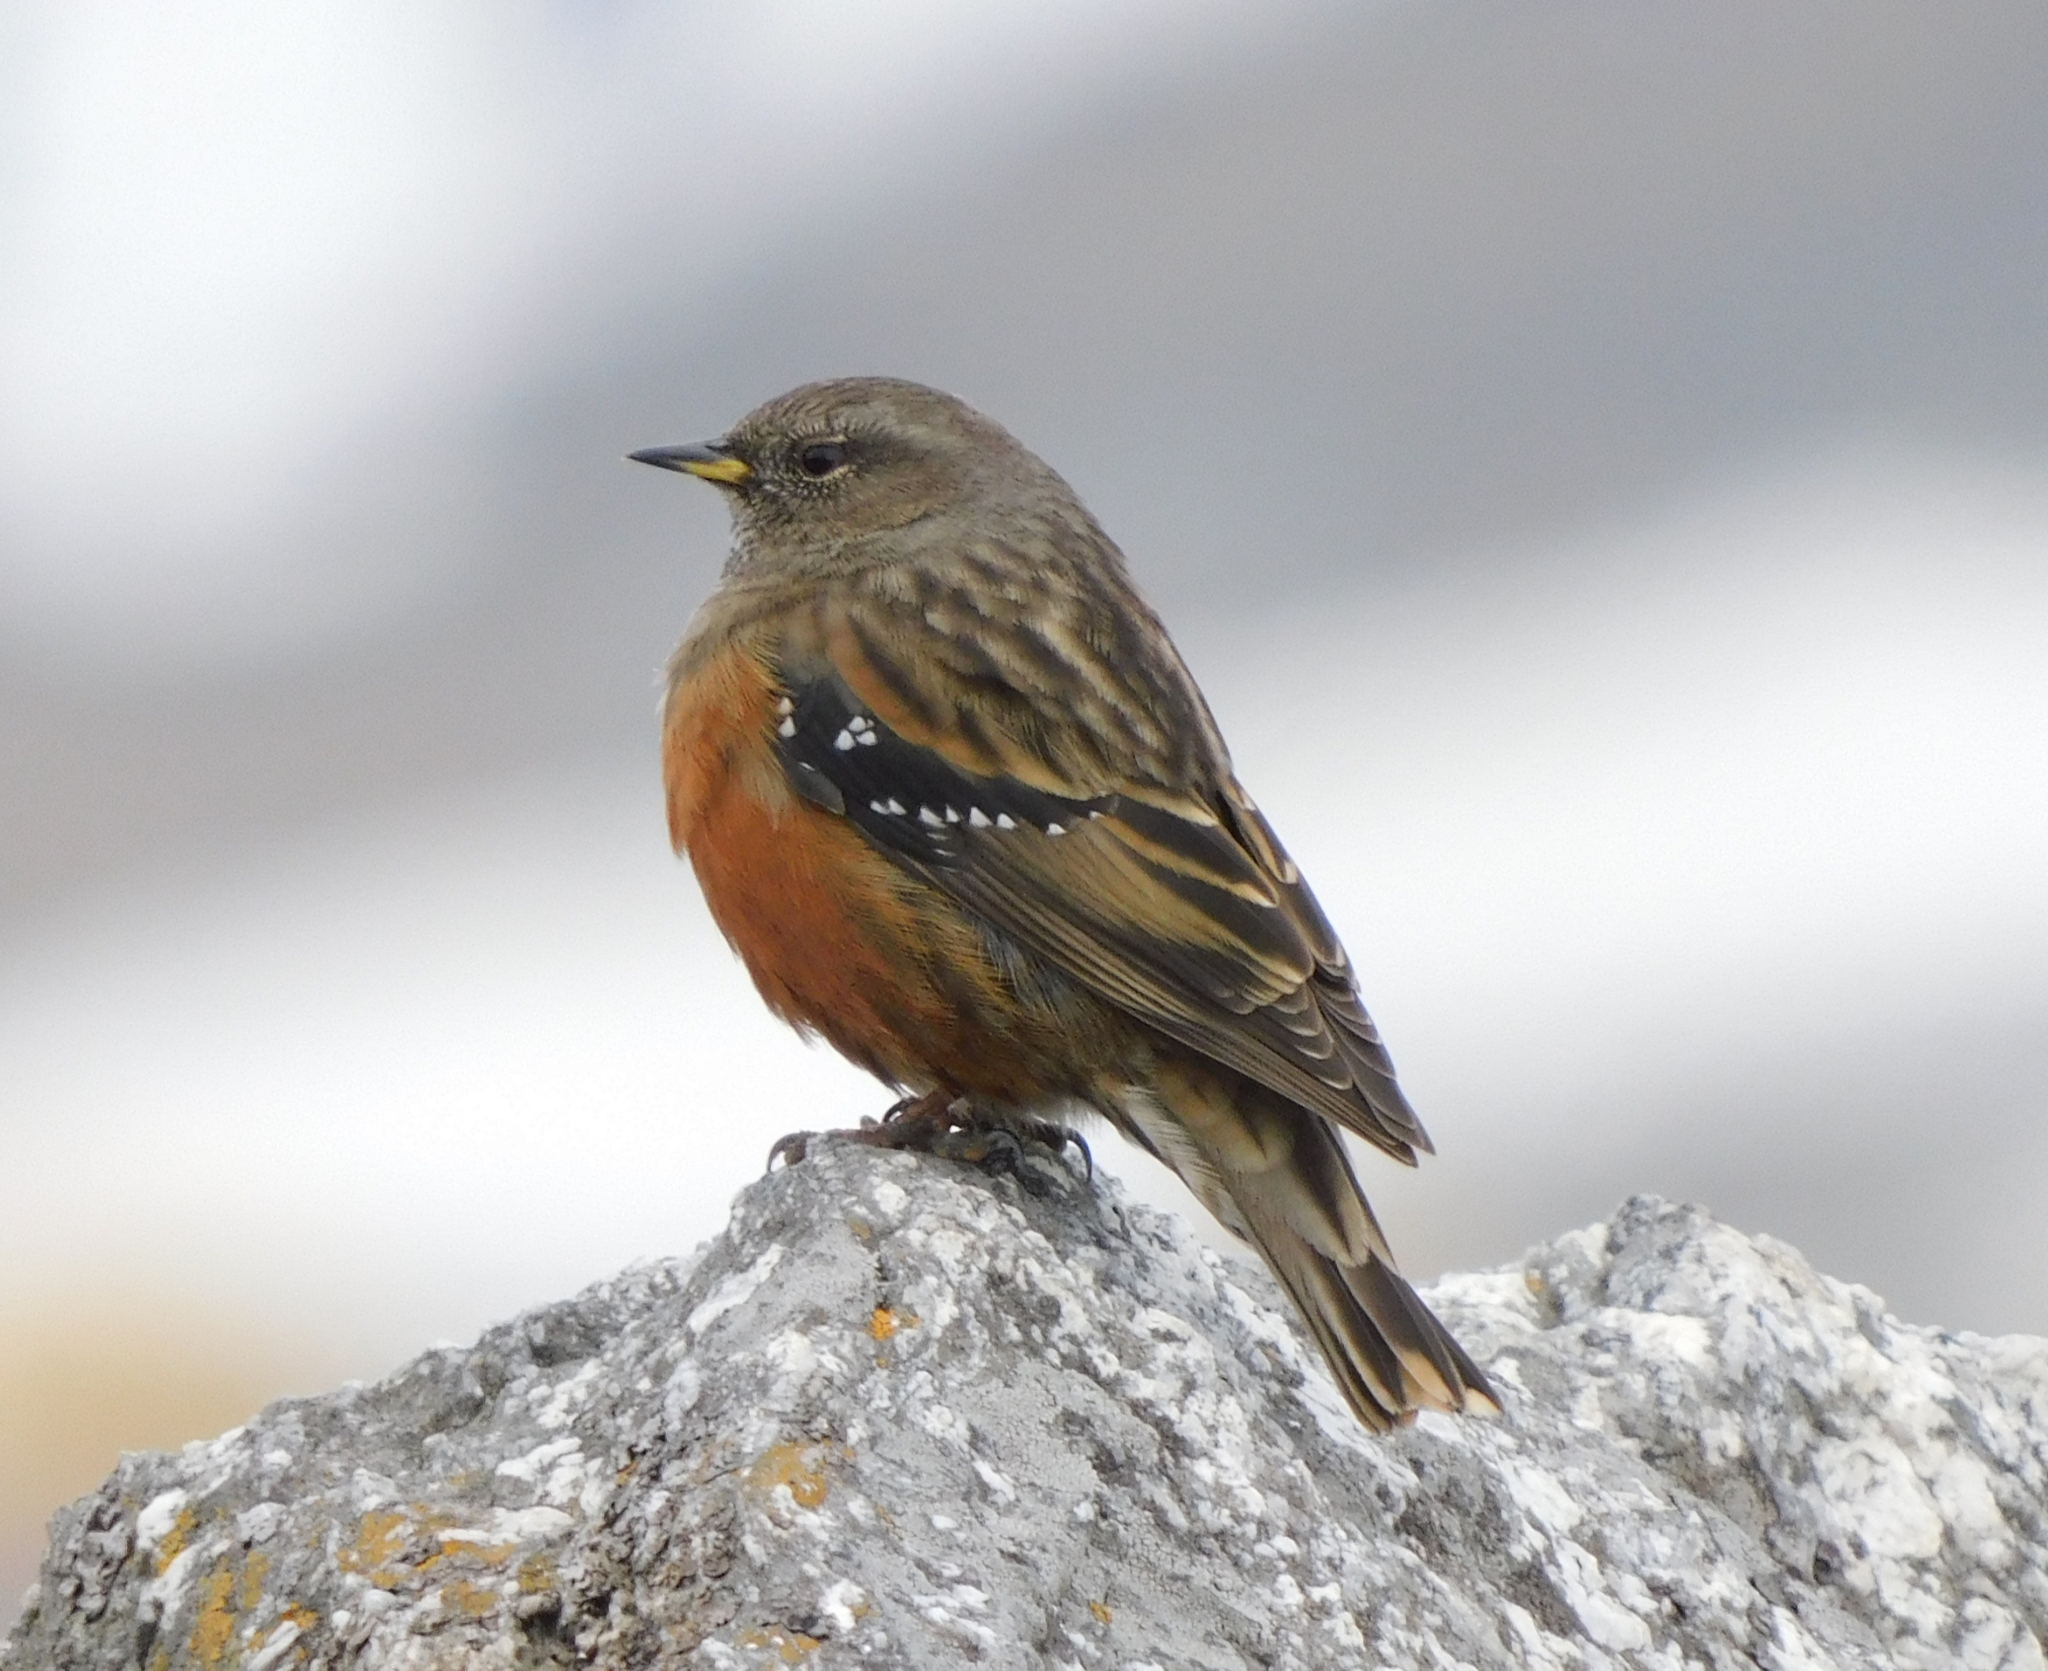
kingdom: Animalia
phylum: Chordata
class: Aves
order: Passeriformes
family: Prunellidae
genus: Prunella
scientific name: Prunella collaris
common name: Alpine accentor
